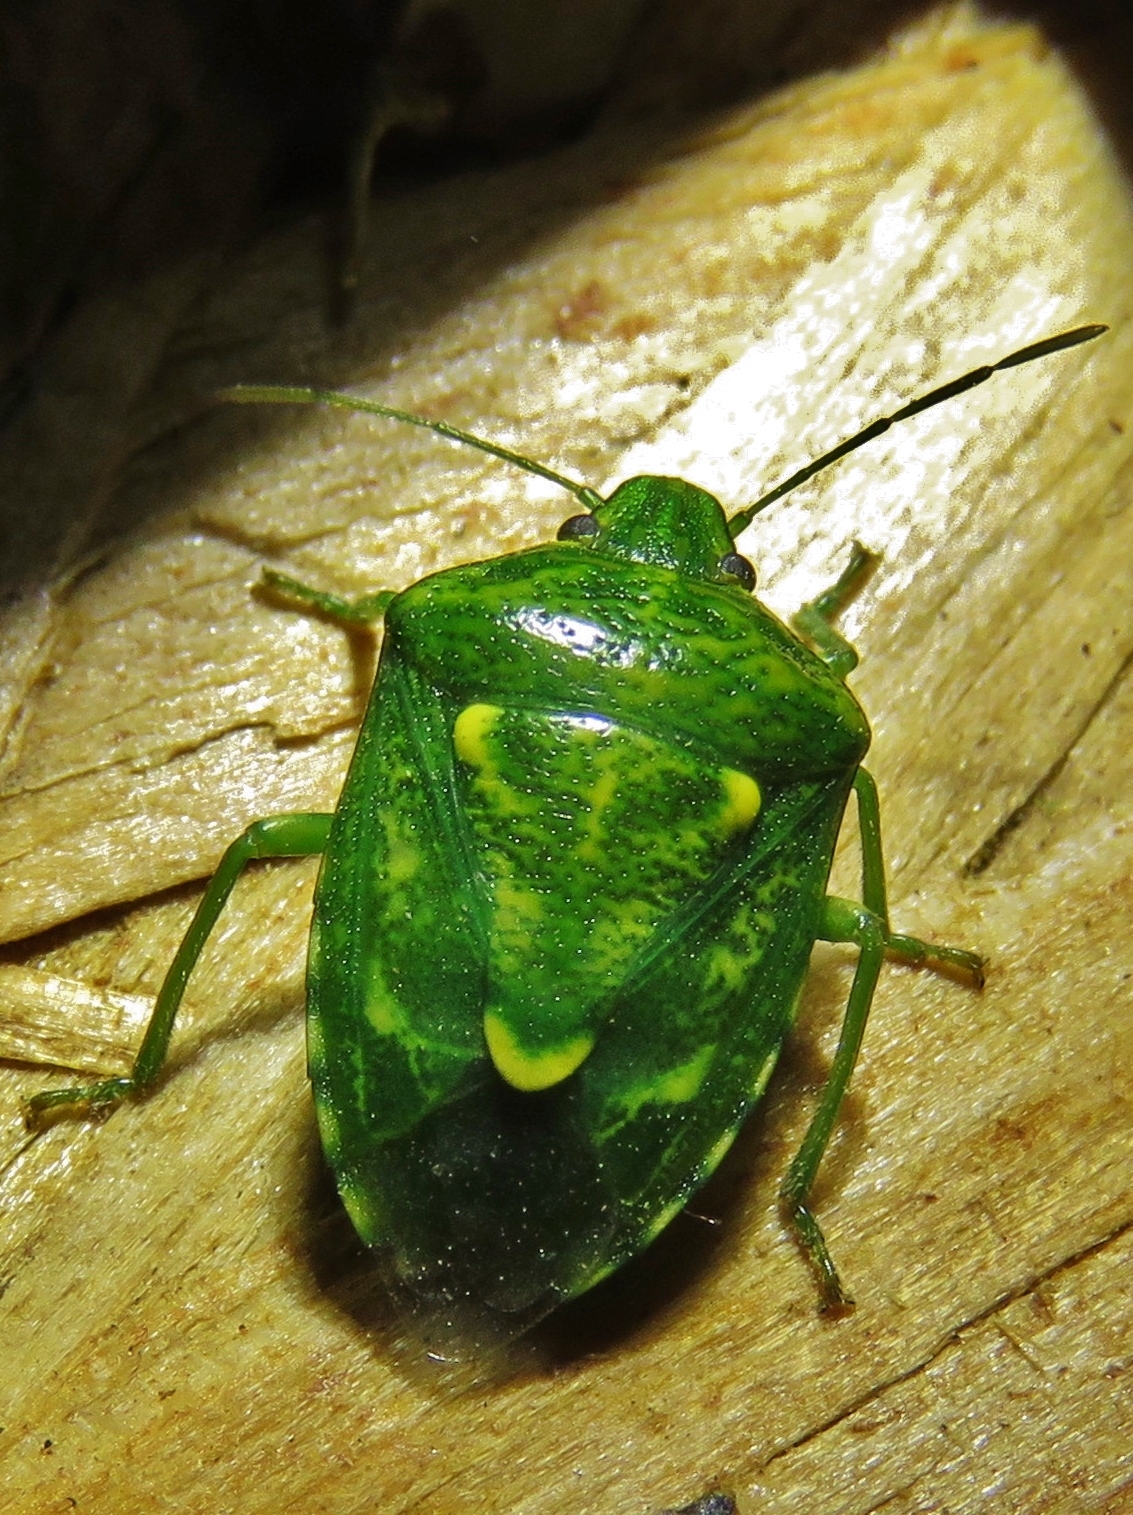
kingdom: Animalia
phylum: Arthropoda
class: Insecta
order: Hemiptera
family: Pentatomidae
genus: Banasa
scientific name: Banasa euchlora
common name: Cedar berry bug
